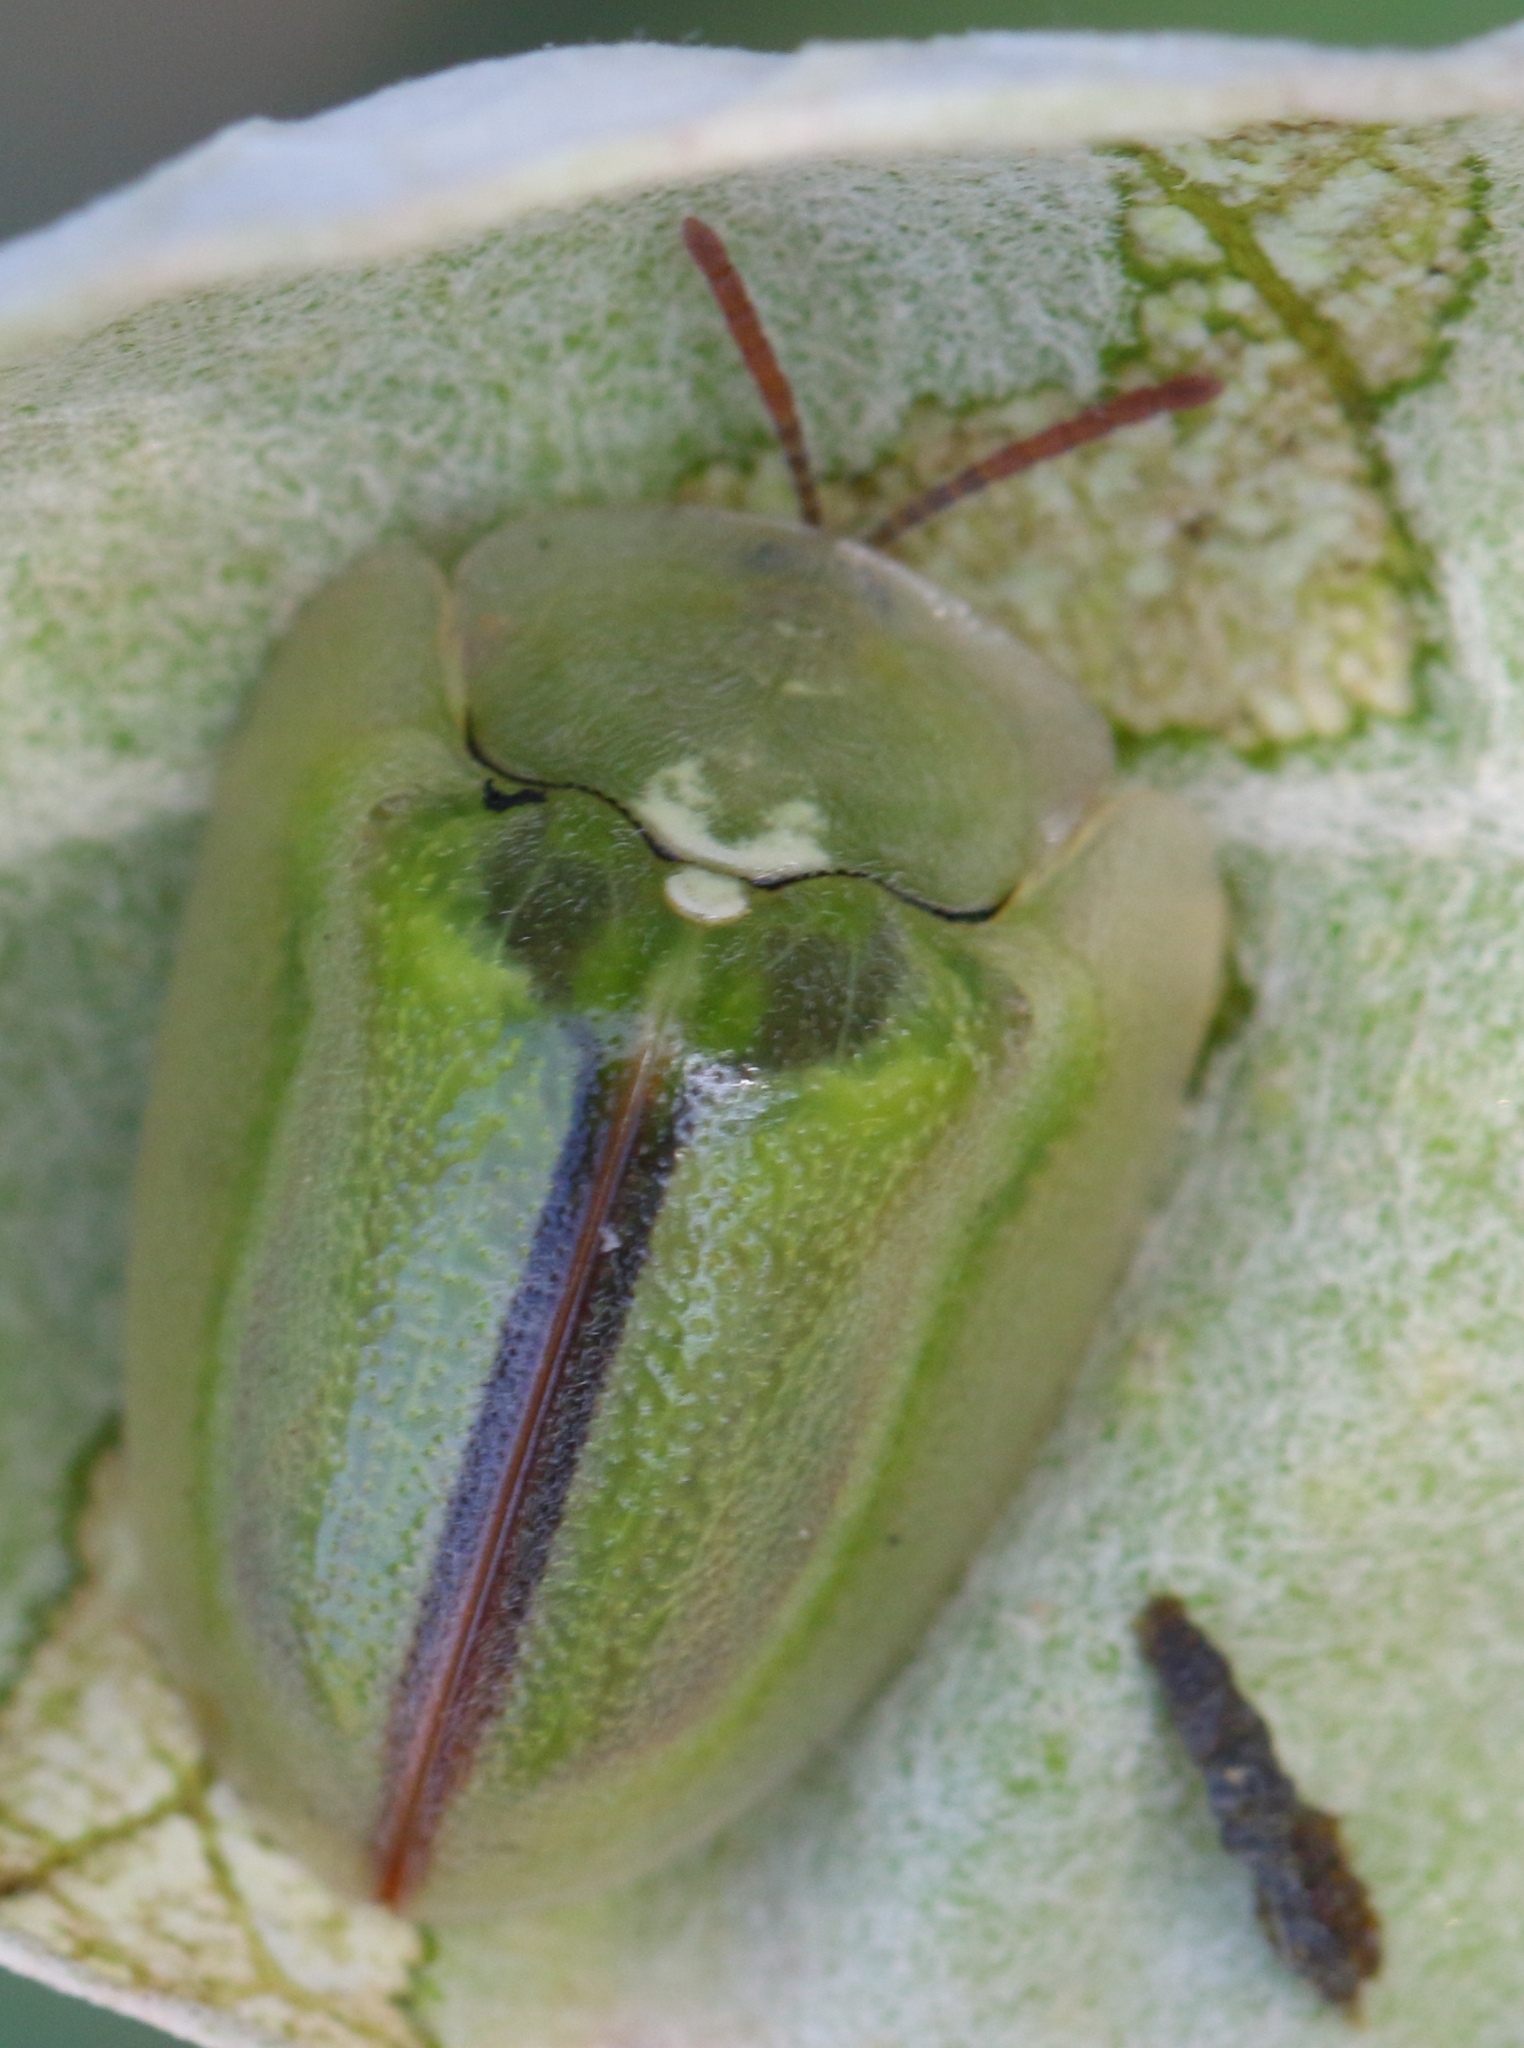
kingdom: Animalia
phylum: Arthropoda
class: Insecta
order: Coleoptera
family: Chrysomelidae
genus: Basipta
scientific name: Basipta stolida
